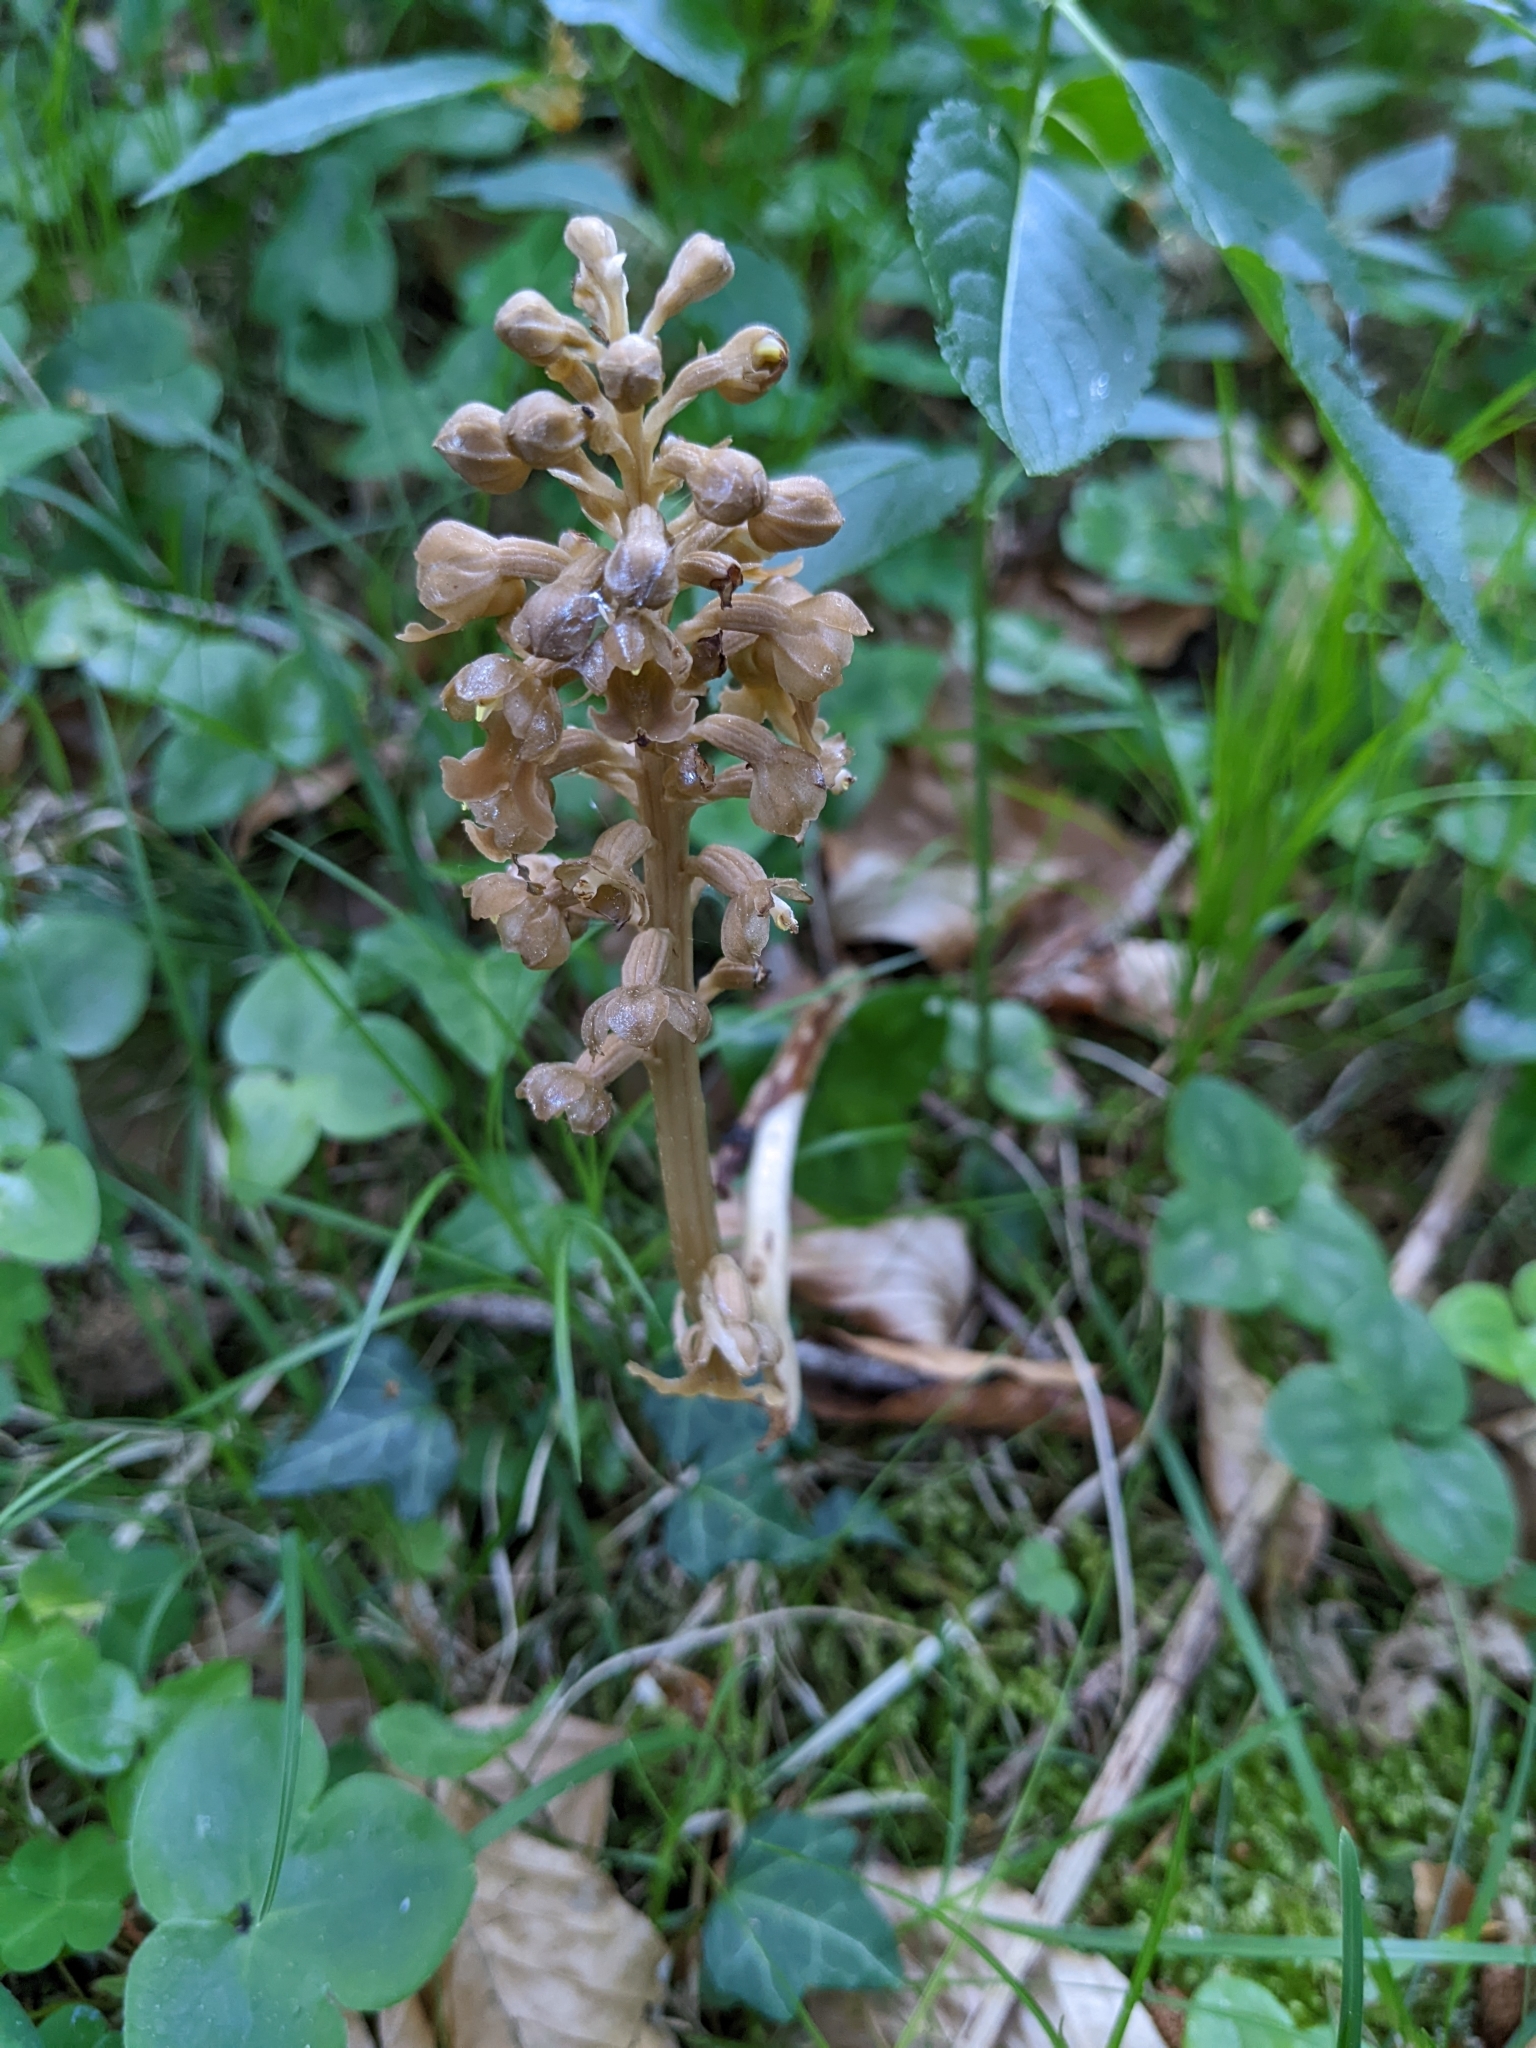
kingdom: Plantae
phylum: Tracheophyta
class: Liliopsida
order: Asparagales
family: Orchidaceae
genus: Neottia
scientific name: Neottia nidus-avis
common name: Bird's-nest orchid
